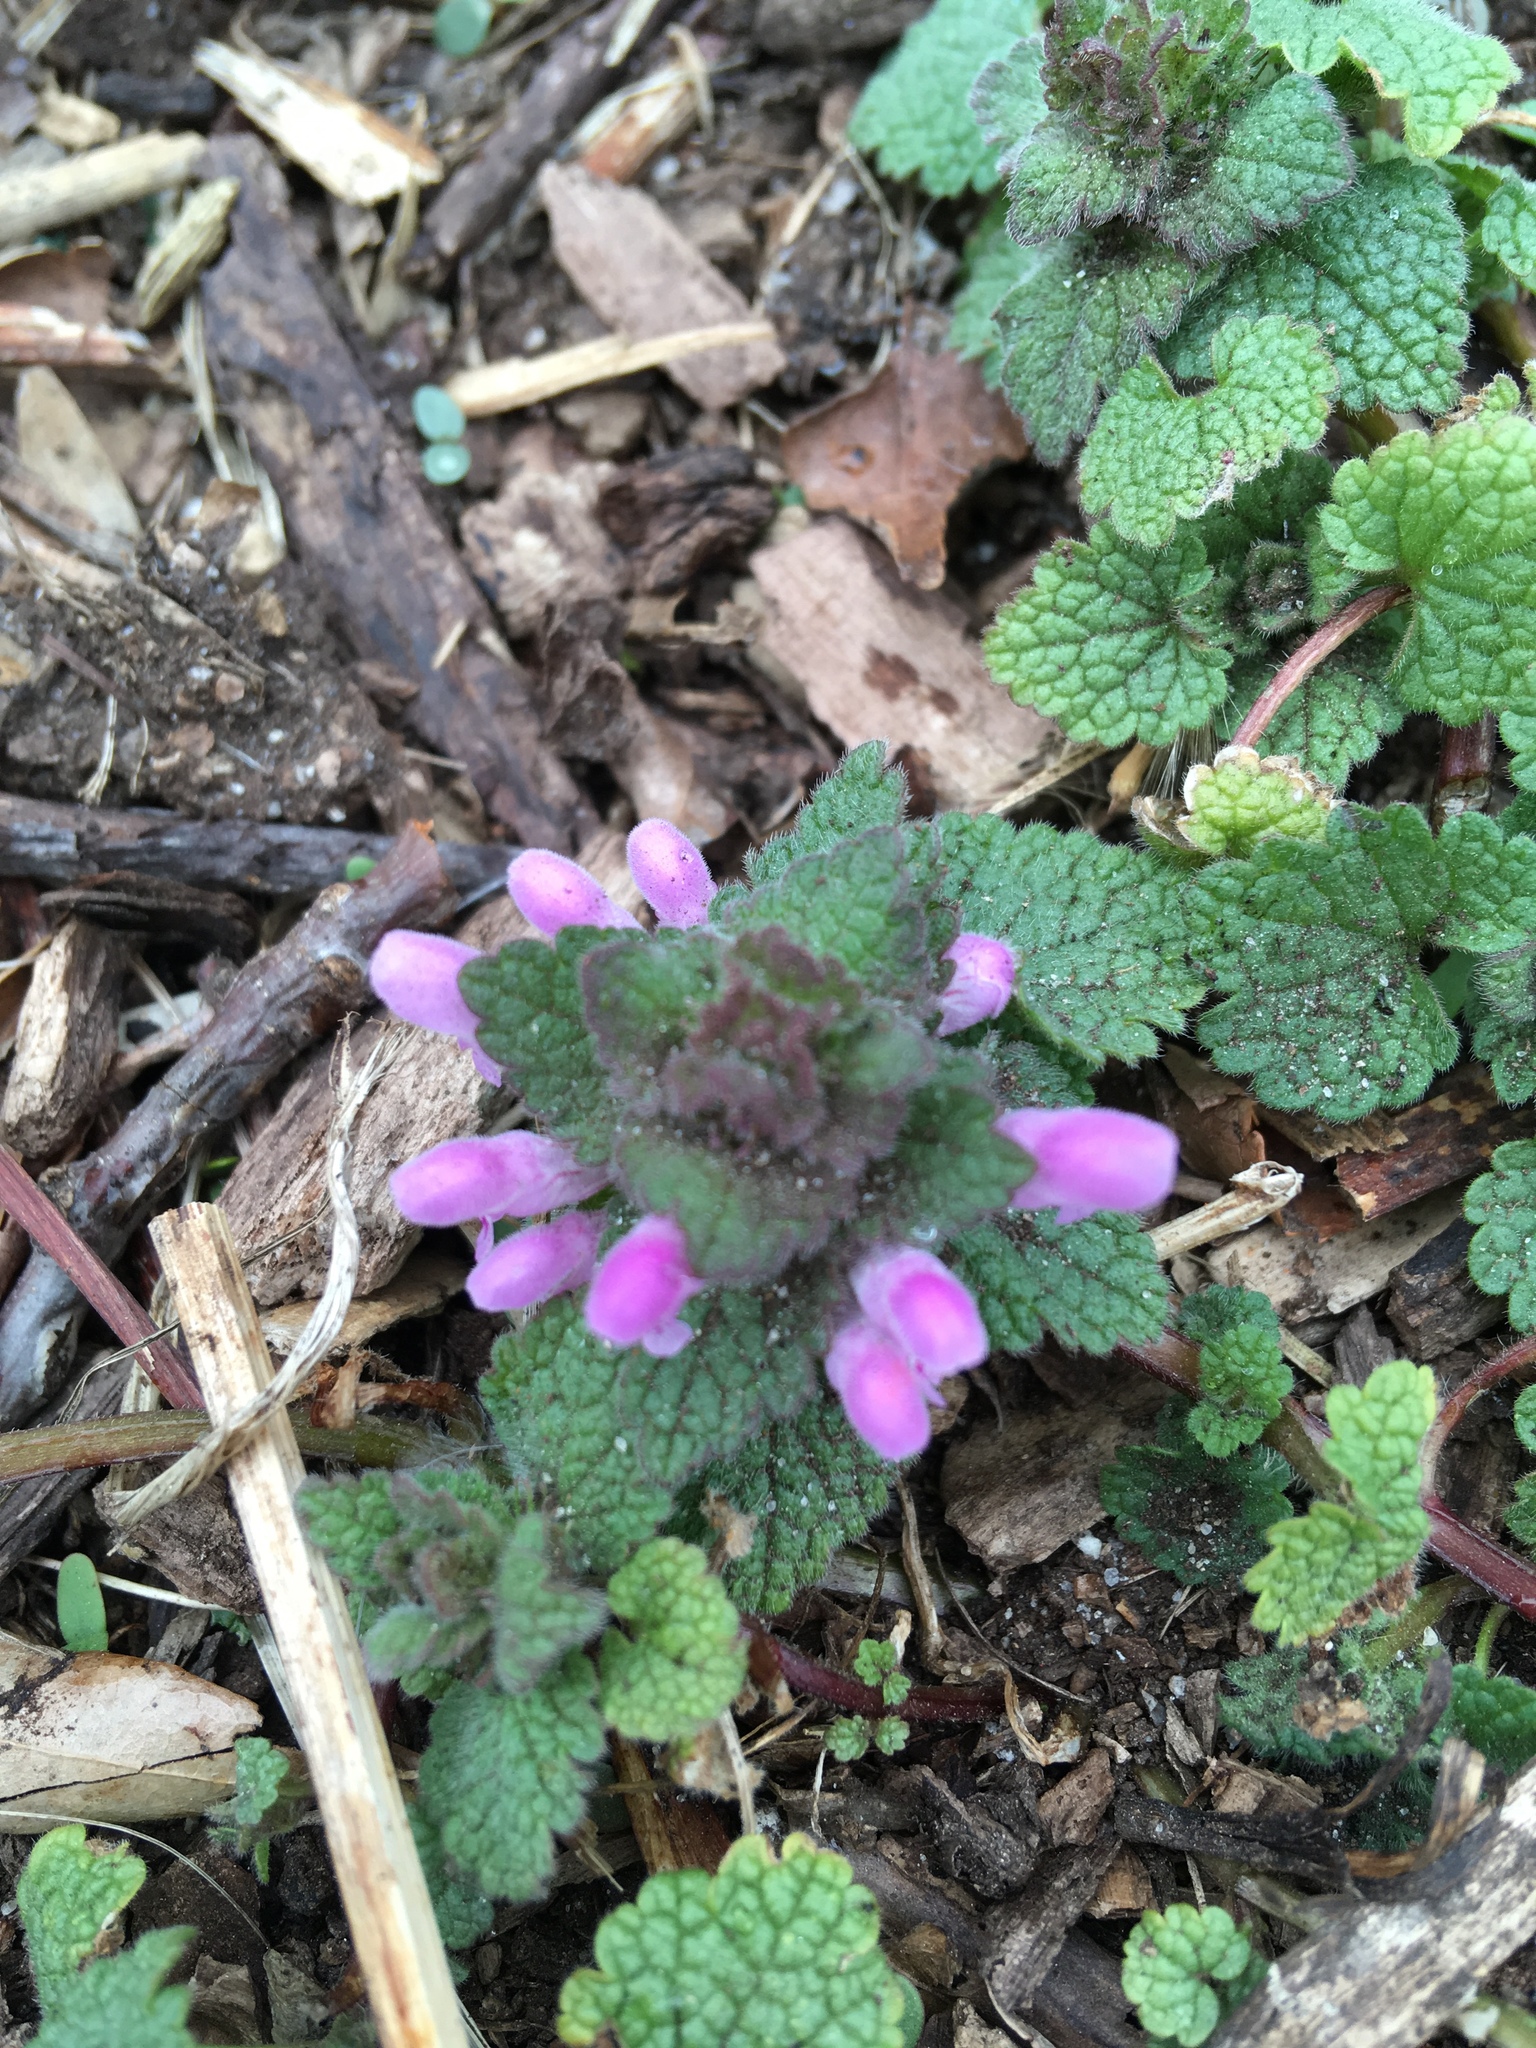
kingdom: Plantae
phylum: Tracheophyta
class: Magnoliopsida
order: Lamiales
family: Lamiaceae
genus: Lamium
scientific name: Lamium purpureum
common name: Red dead-nettle
